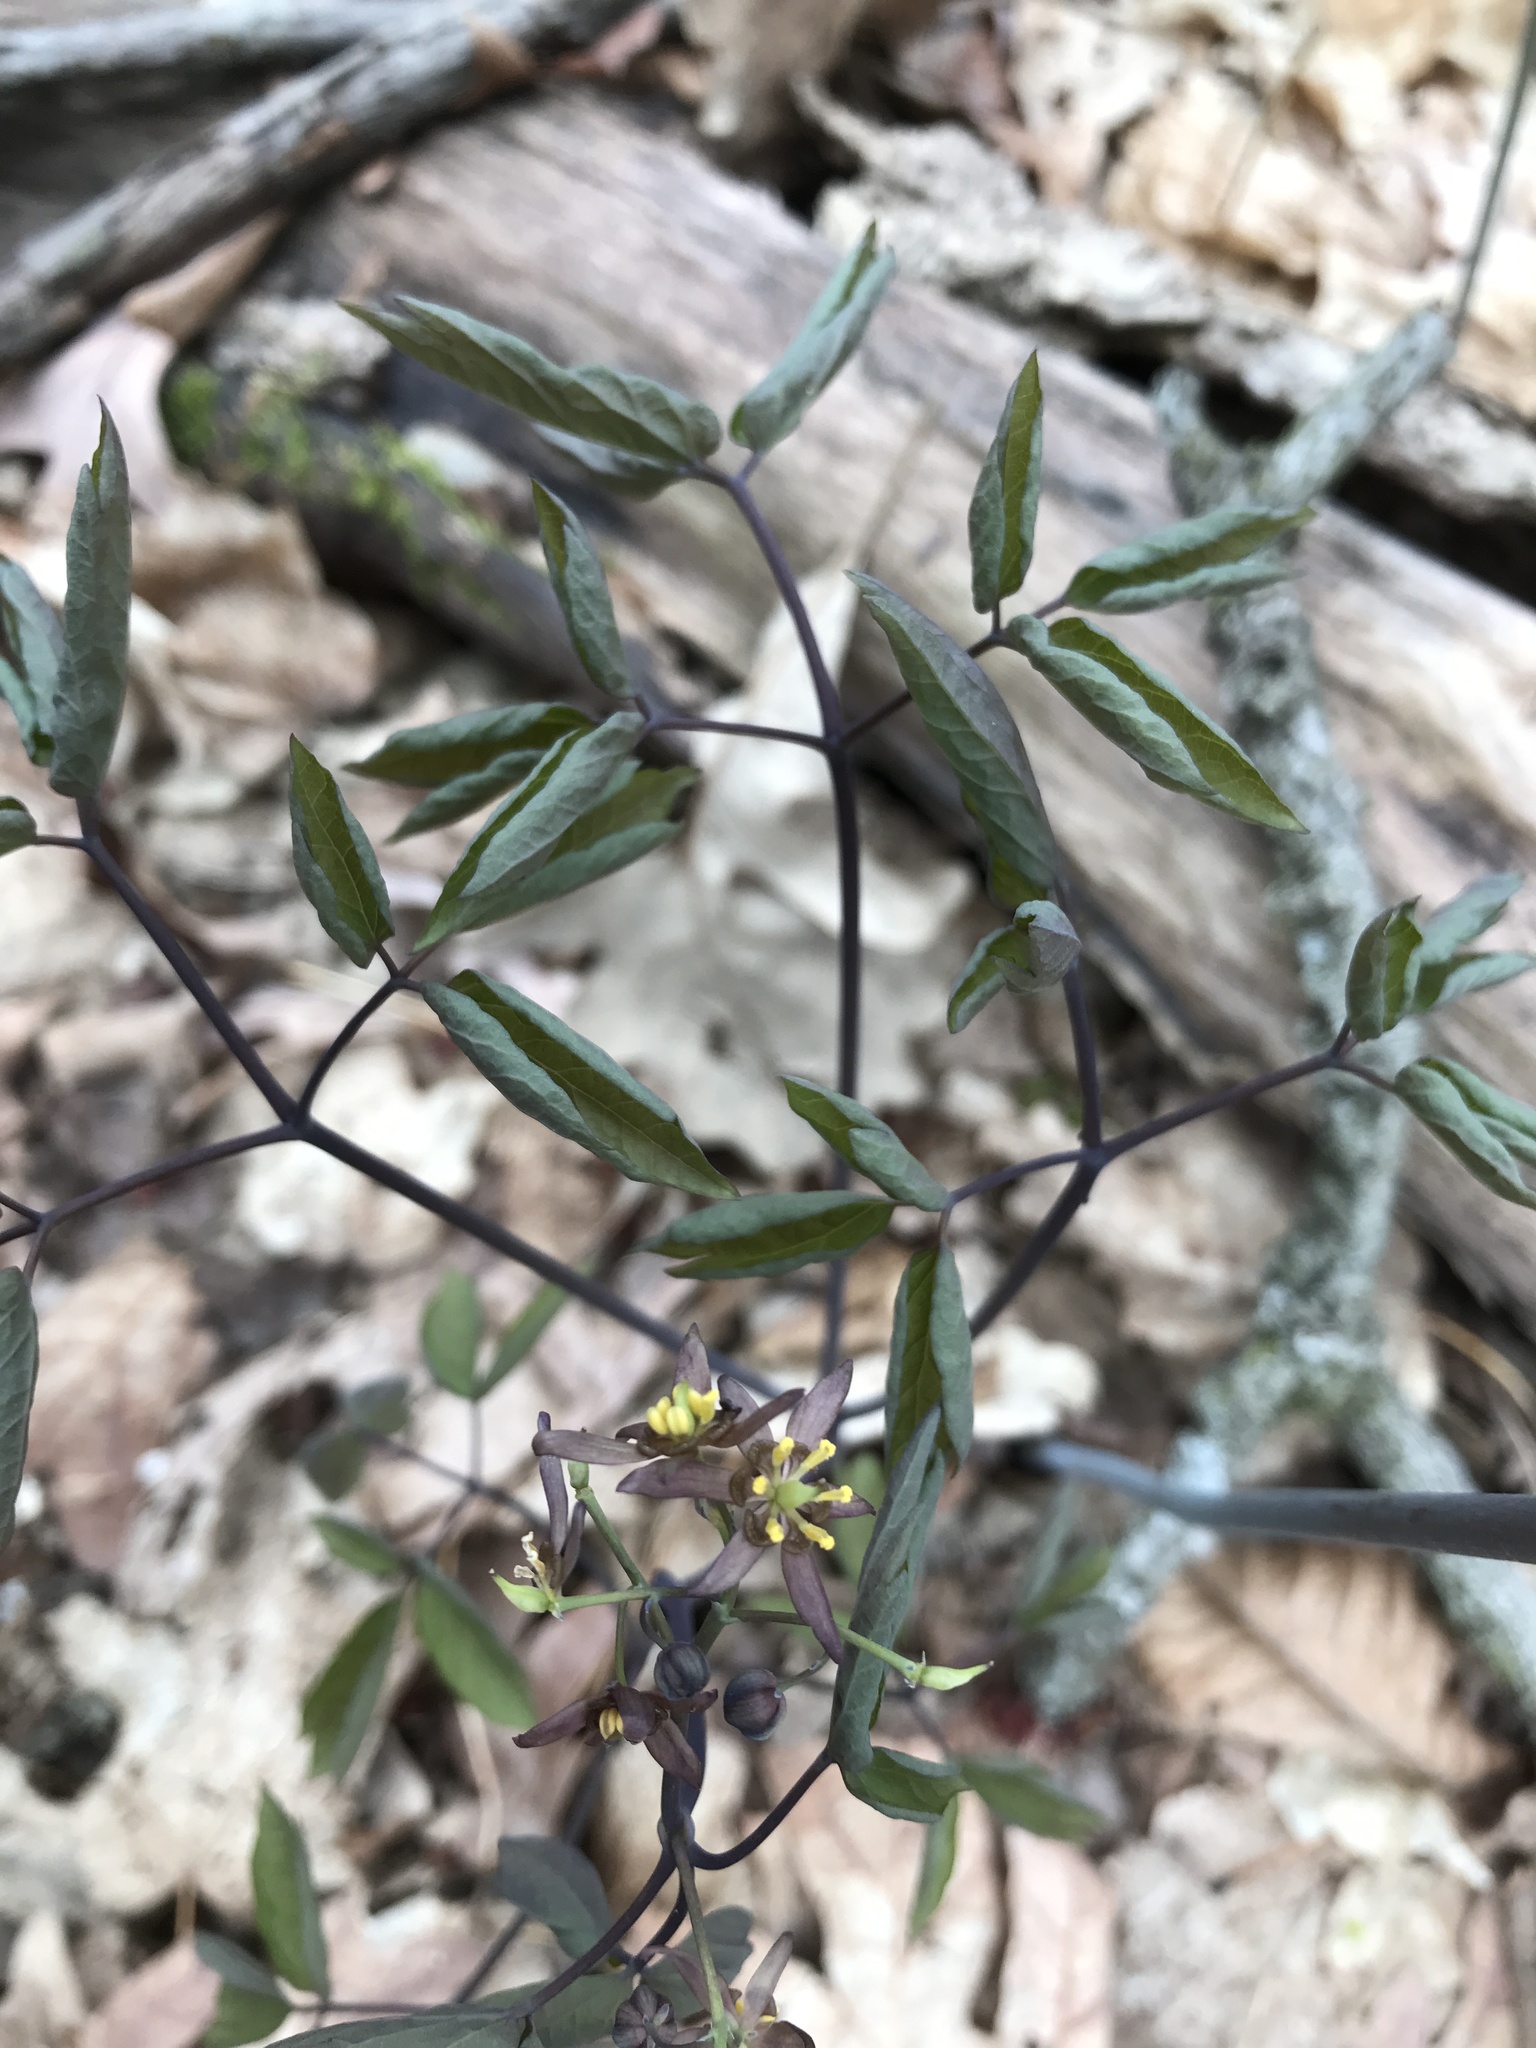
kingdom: Plantae
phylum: Tracheophyta
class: Magnoliopsida
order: Ranunculales
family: Berberidaceae
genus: Caulophyllum
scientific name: Caulophyllum giganteum
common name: Blue cohosh
